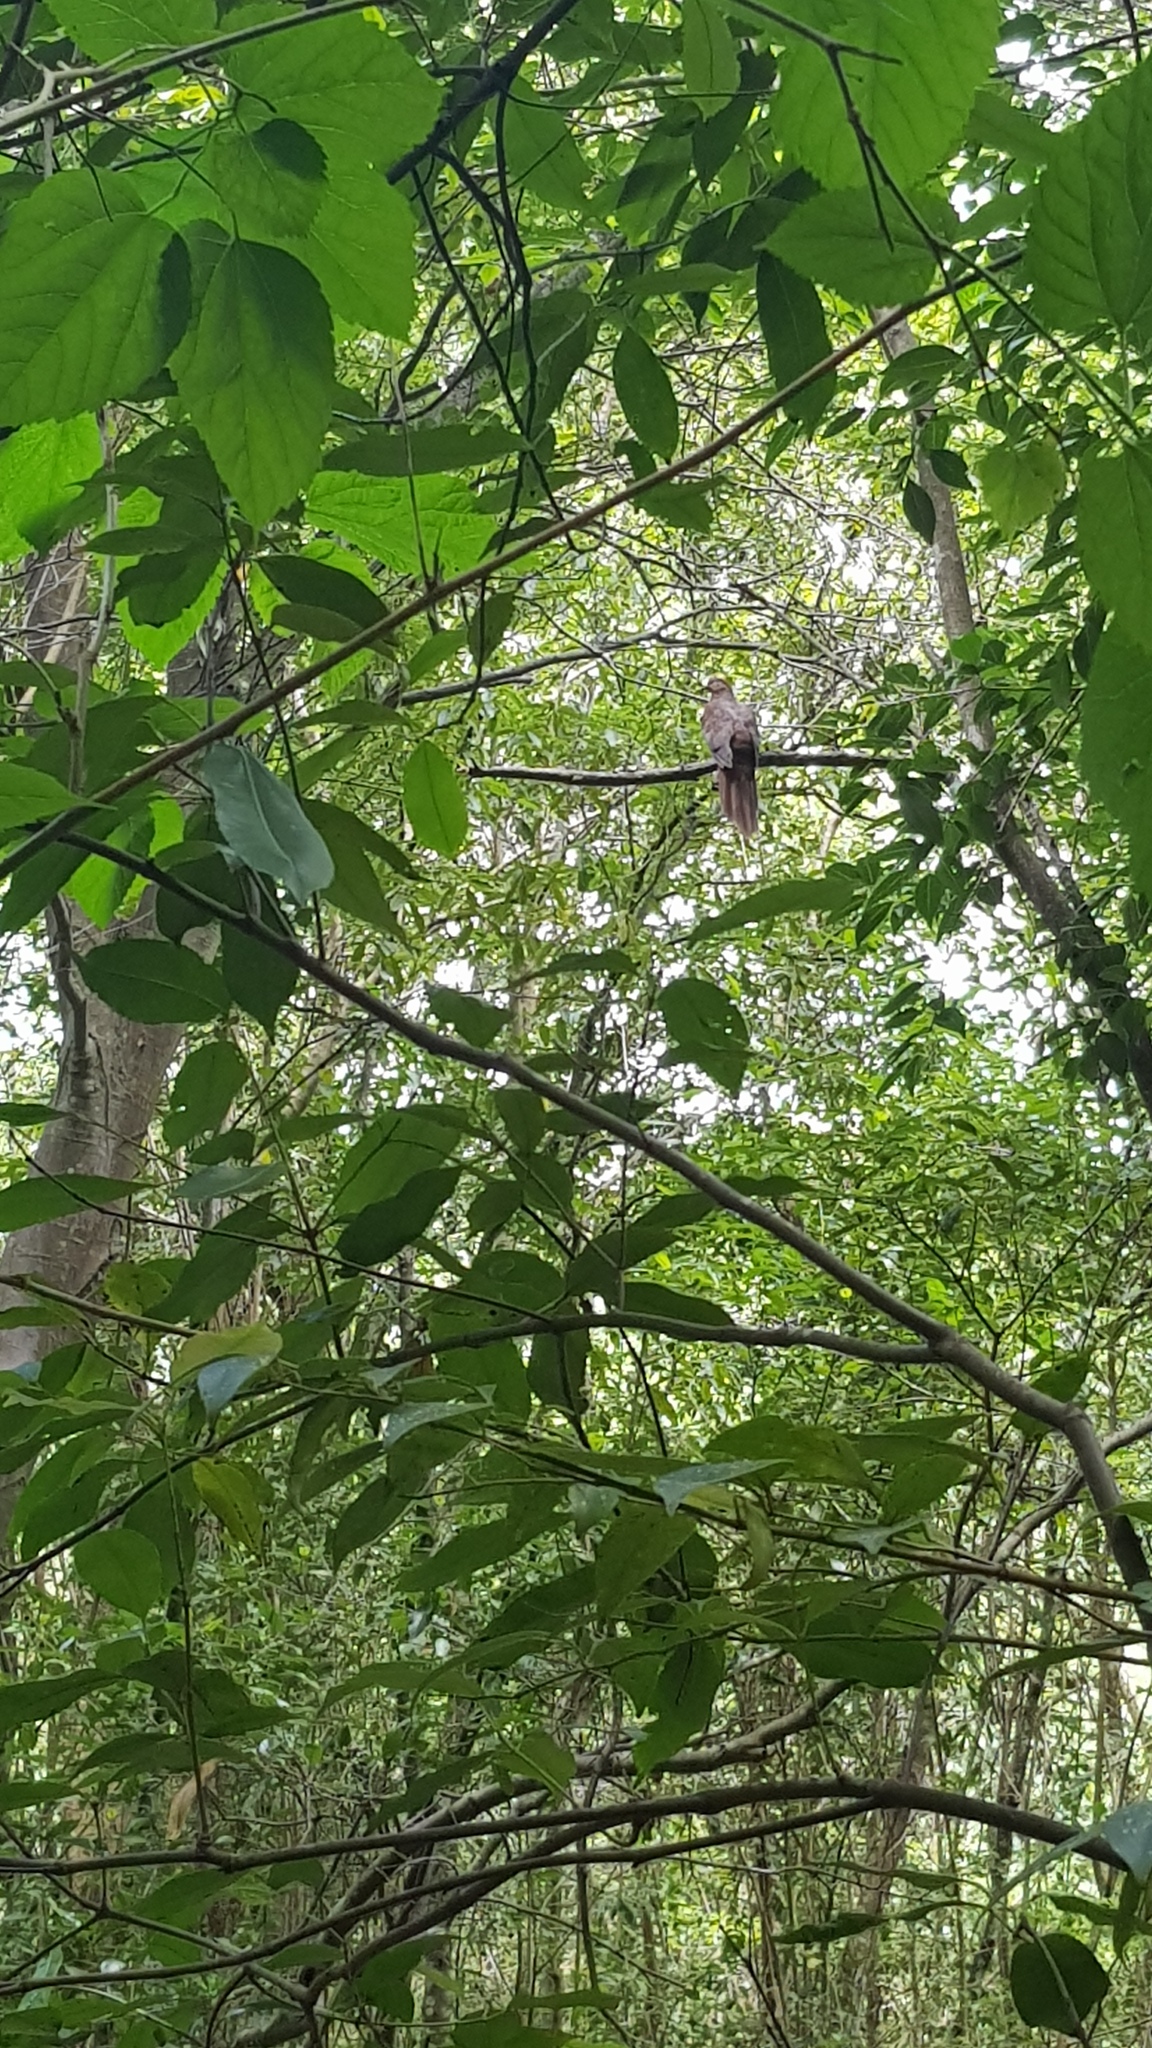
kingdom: Animalia
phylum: Chordata
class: Aves
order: Columbiformes
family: Columbidae
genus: Macropygia
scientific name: Macropygia phasianella
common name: Brown cuckoo-dove
